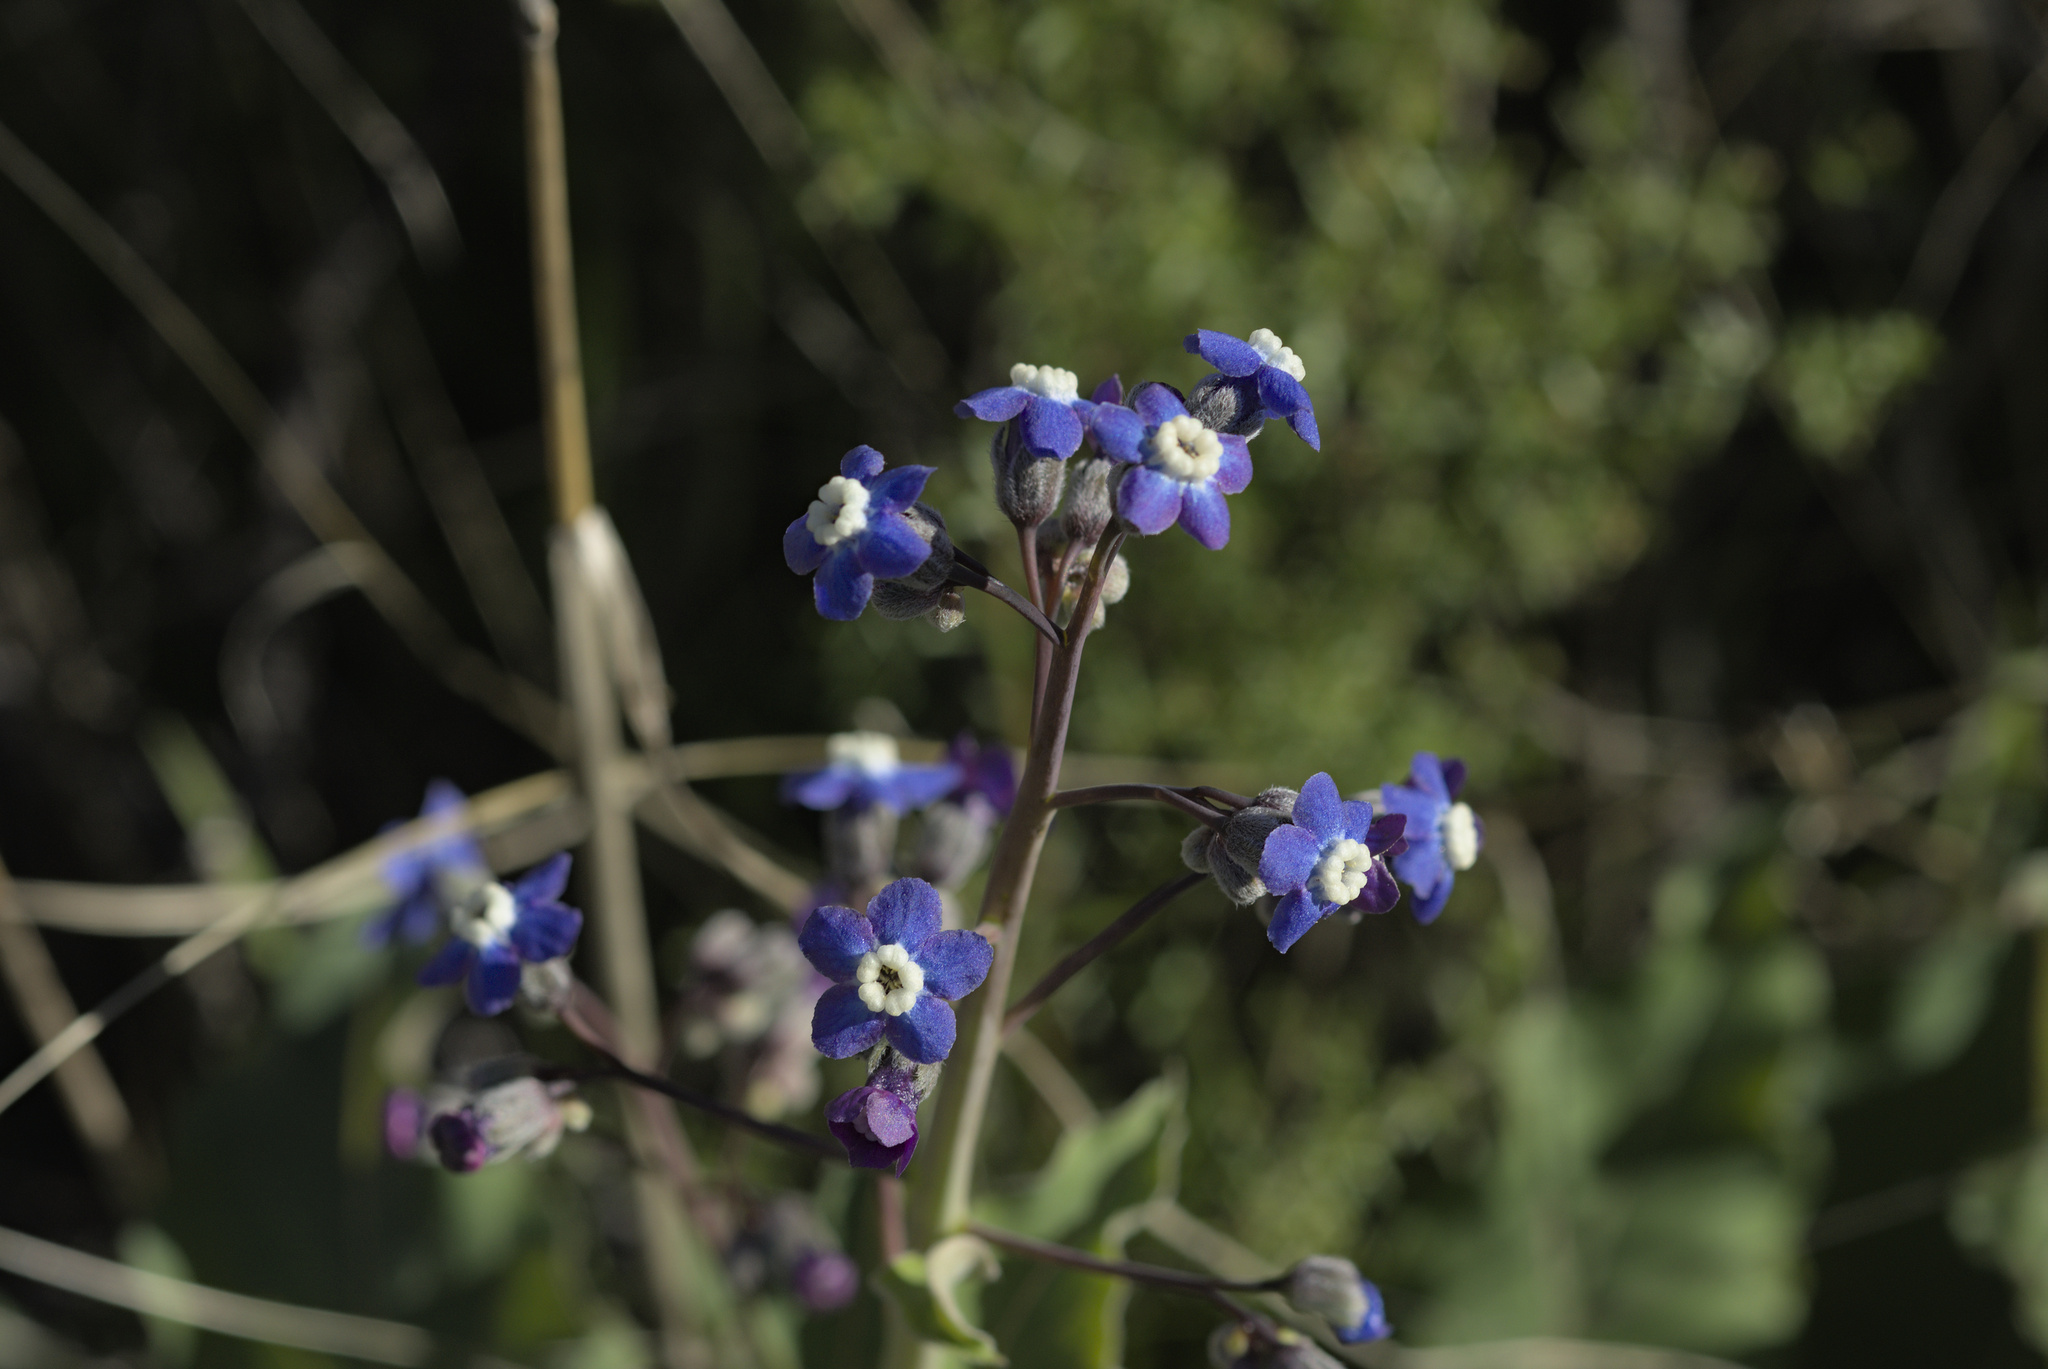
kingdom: Plantae
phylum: Tracheophyta
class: Magnoliopsida
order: Boraginales
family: Boraginaceae
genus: Adelinia
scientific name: Adelinia grande
